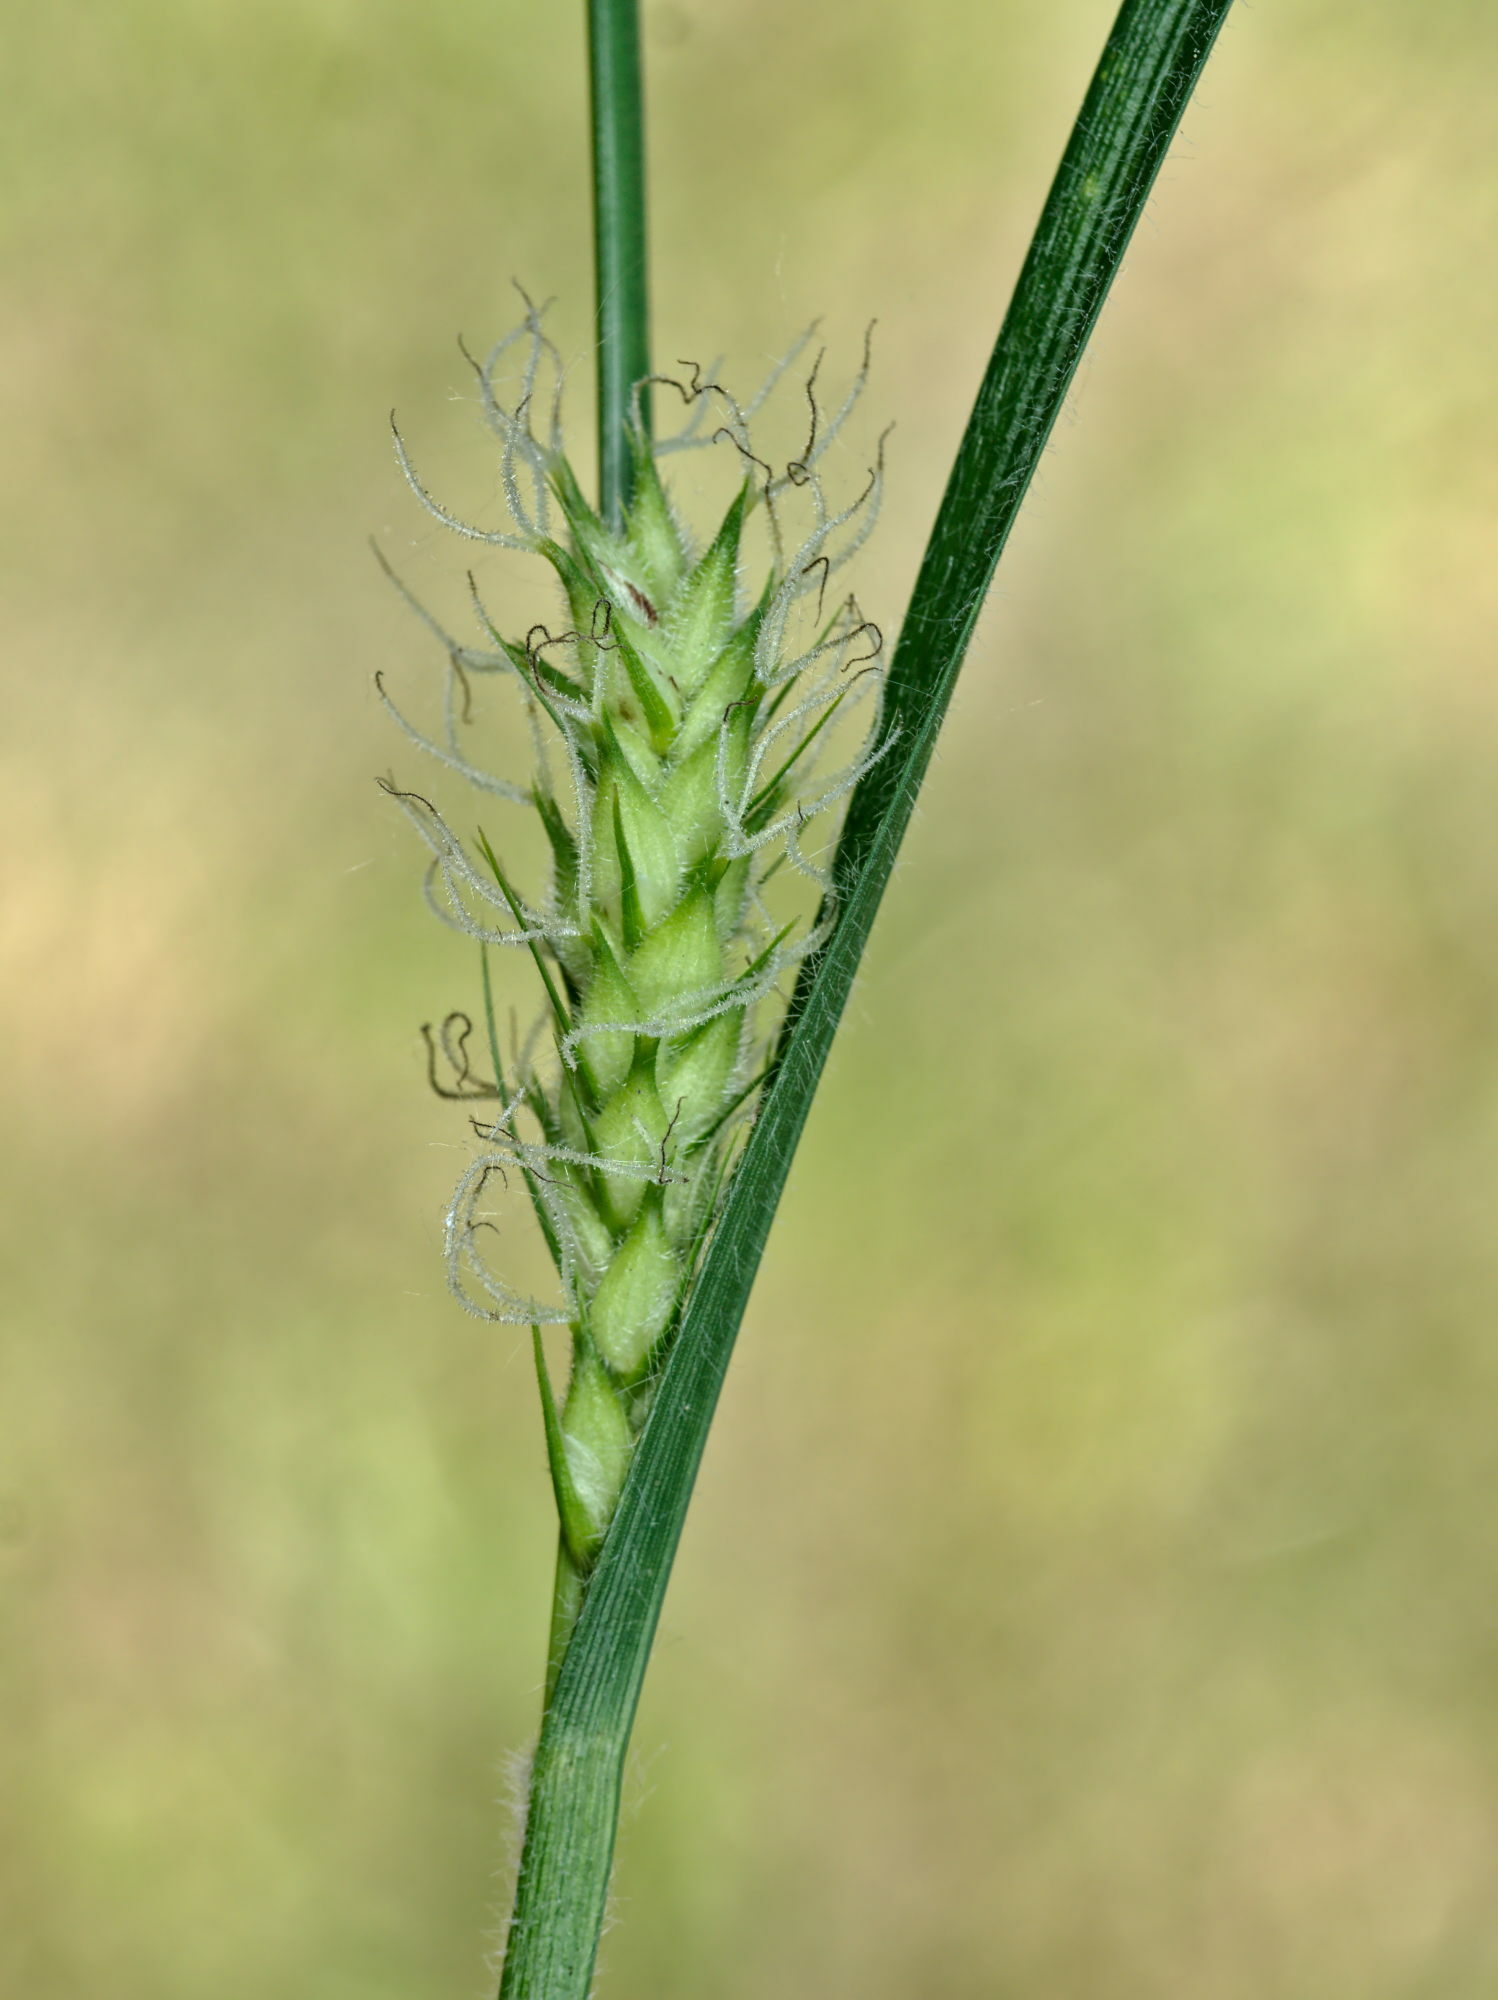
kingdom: Plantae
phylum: Tracheophyta
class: Liliopsida
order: Poales
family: Cyperaceae
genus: Carex
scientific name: Carex hirta
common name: Hairy sedge
